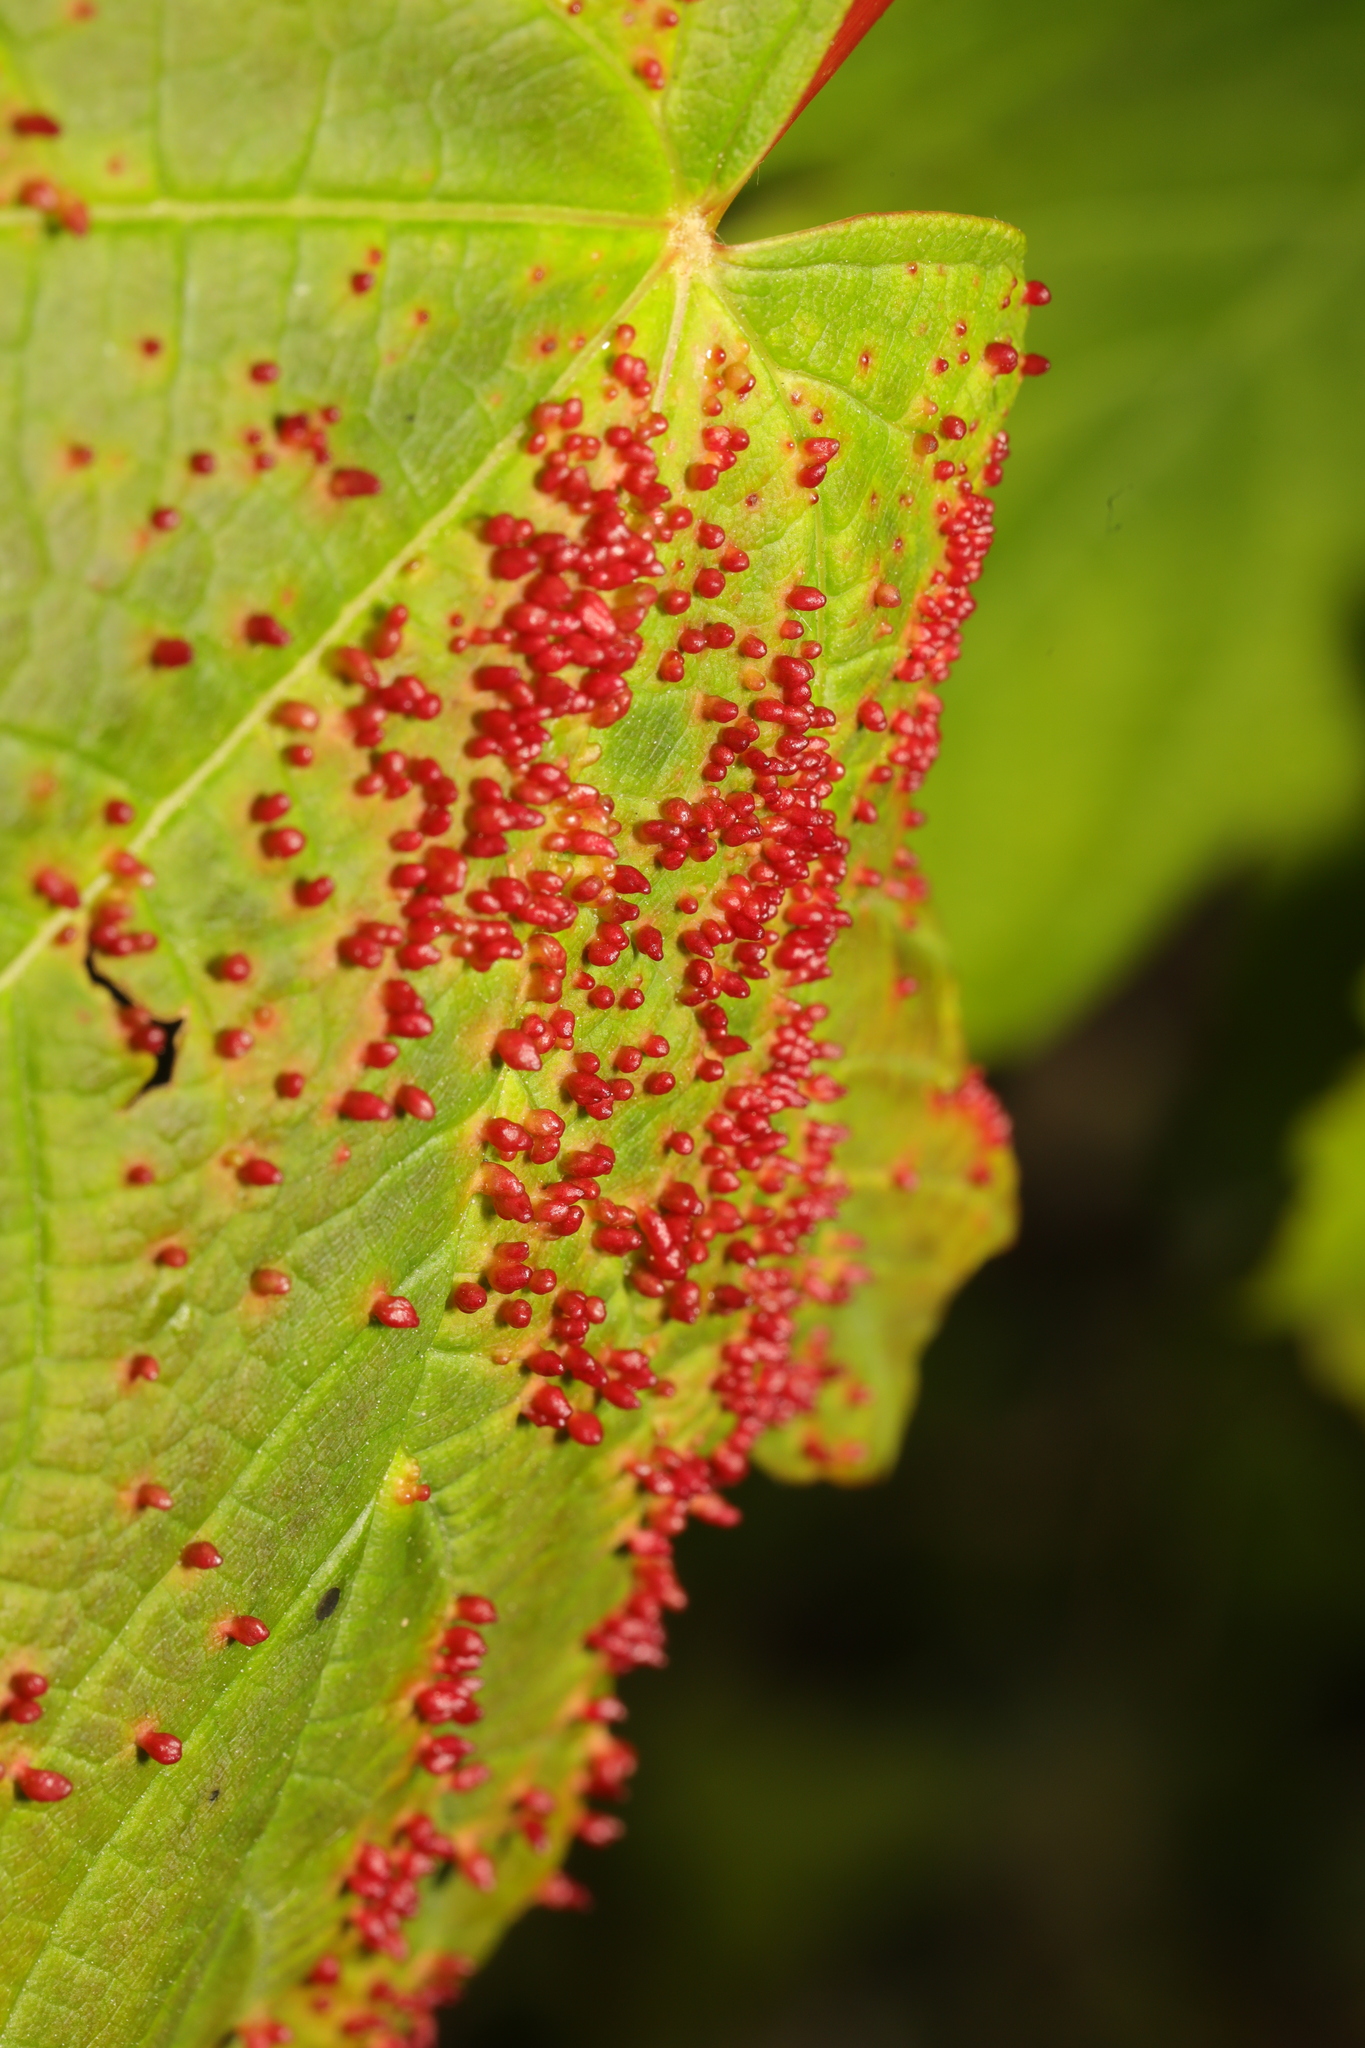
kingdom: Animalia
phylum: Arthropoda
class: Arachnida
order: Trombidiformes
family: Eriophyidae
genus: Aceria
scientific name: Aceria cephaloneus
